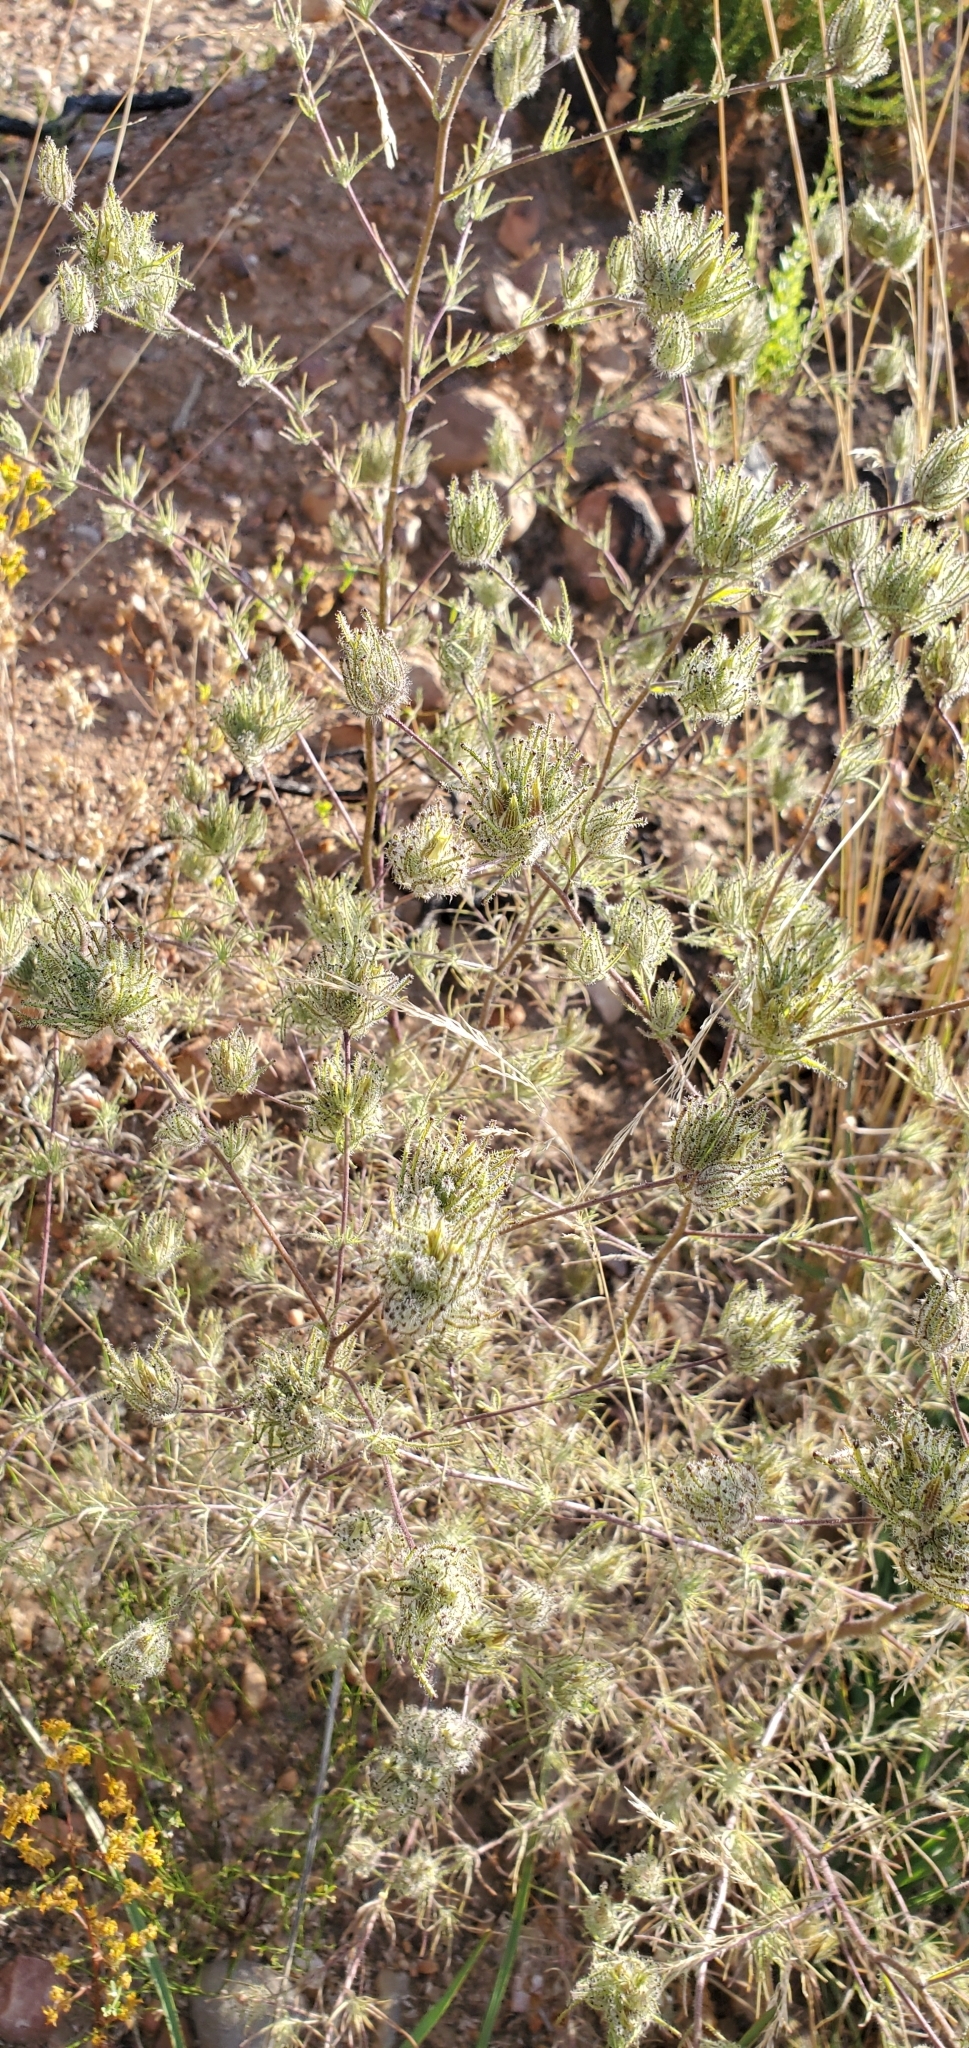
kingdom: Plantae
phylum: Tracheophyta
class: Magnoliopsida
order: Lamiales
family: Orobanchaceae
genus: Cordylanthus
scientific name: Cordylanthus rigidus
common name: Stiff-branch bird's-beak
